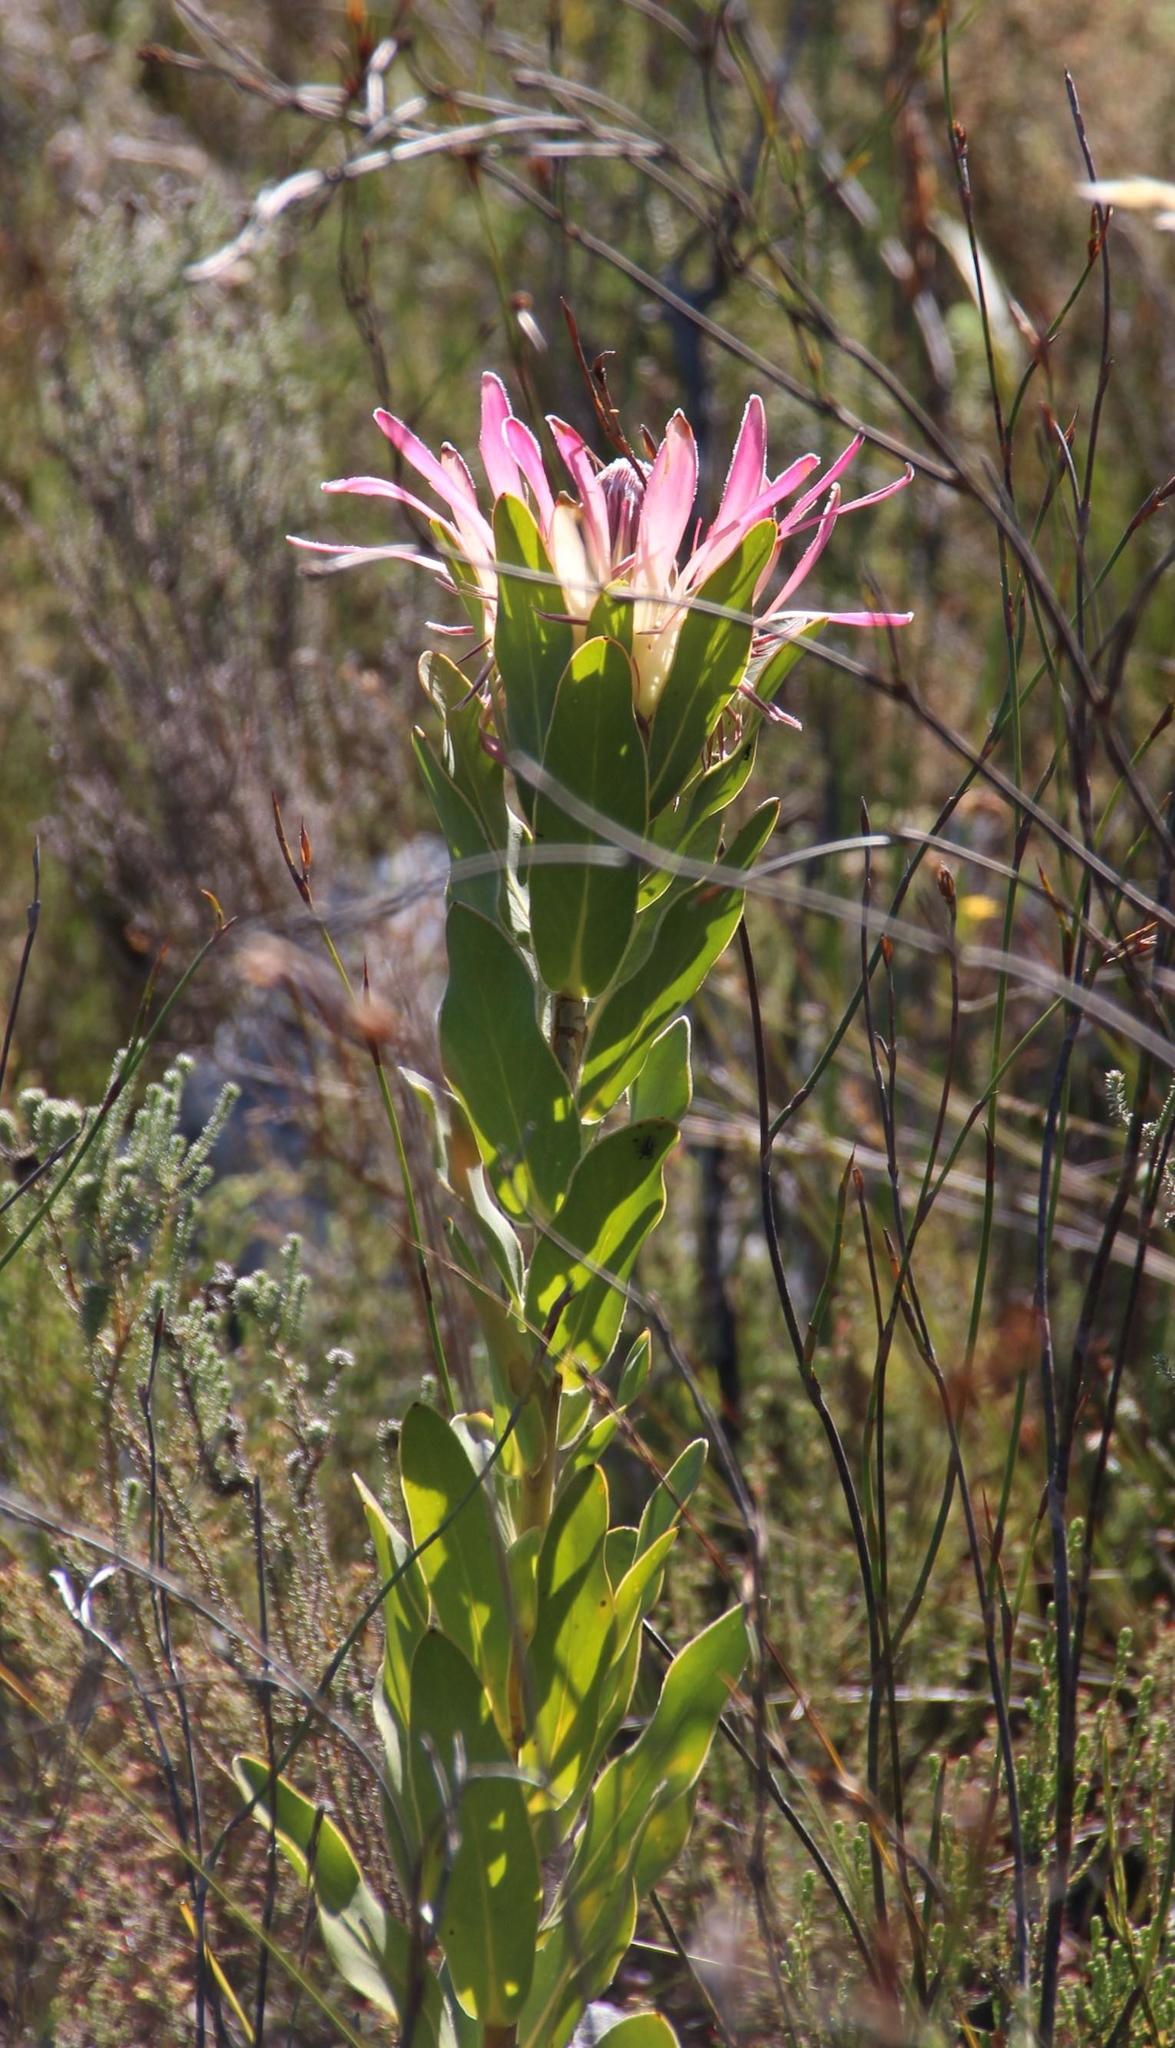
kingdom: Plantae
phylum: Tracheophyta
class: Magnoliopsida
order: Proteales
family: Proteaceae
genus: Protea
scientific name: Protea compacta
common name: Bot river protea
